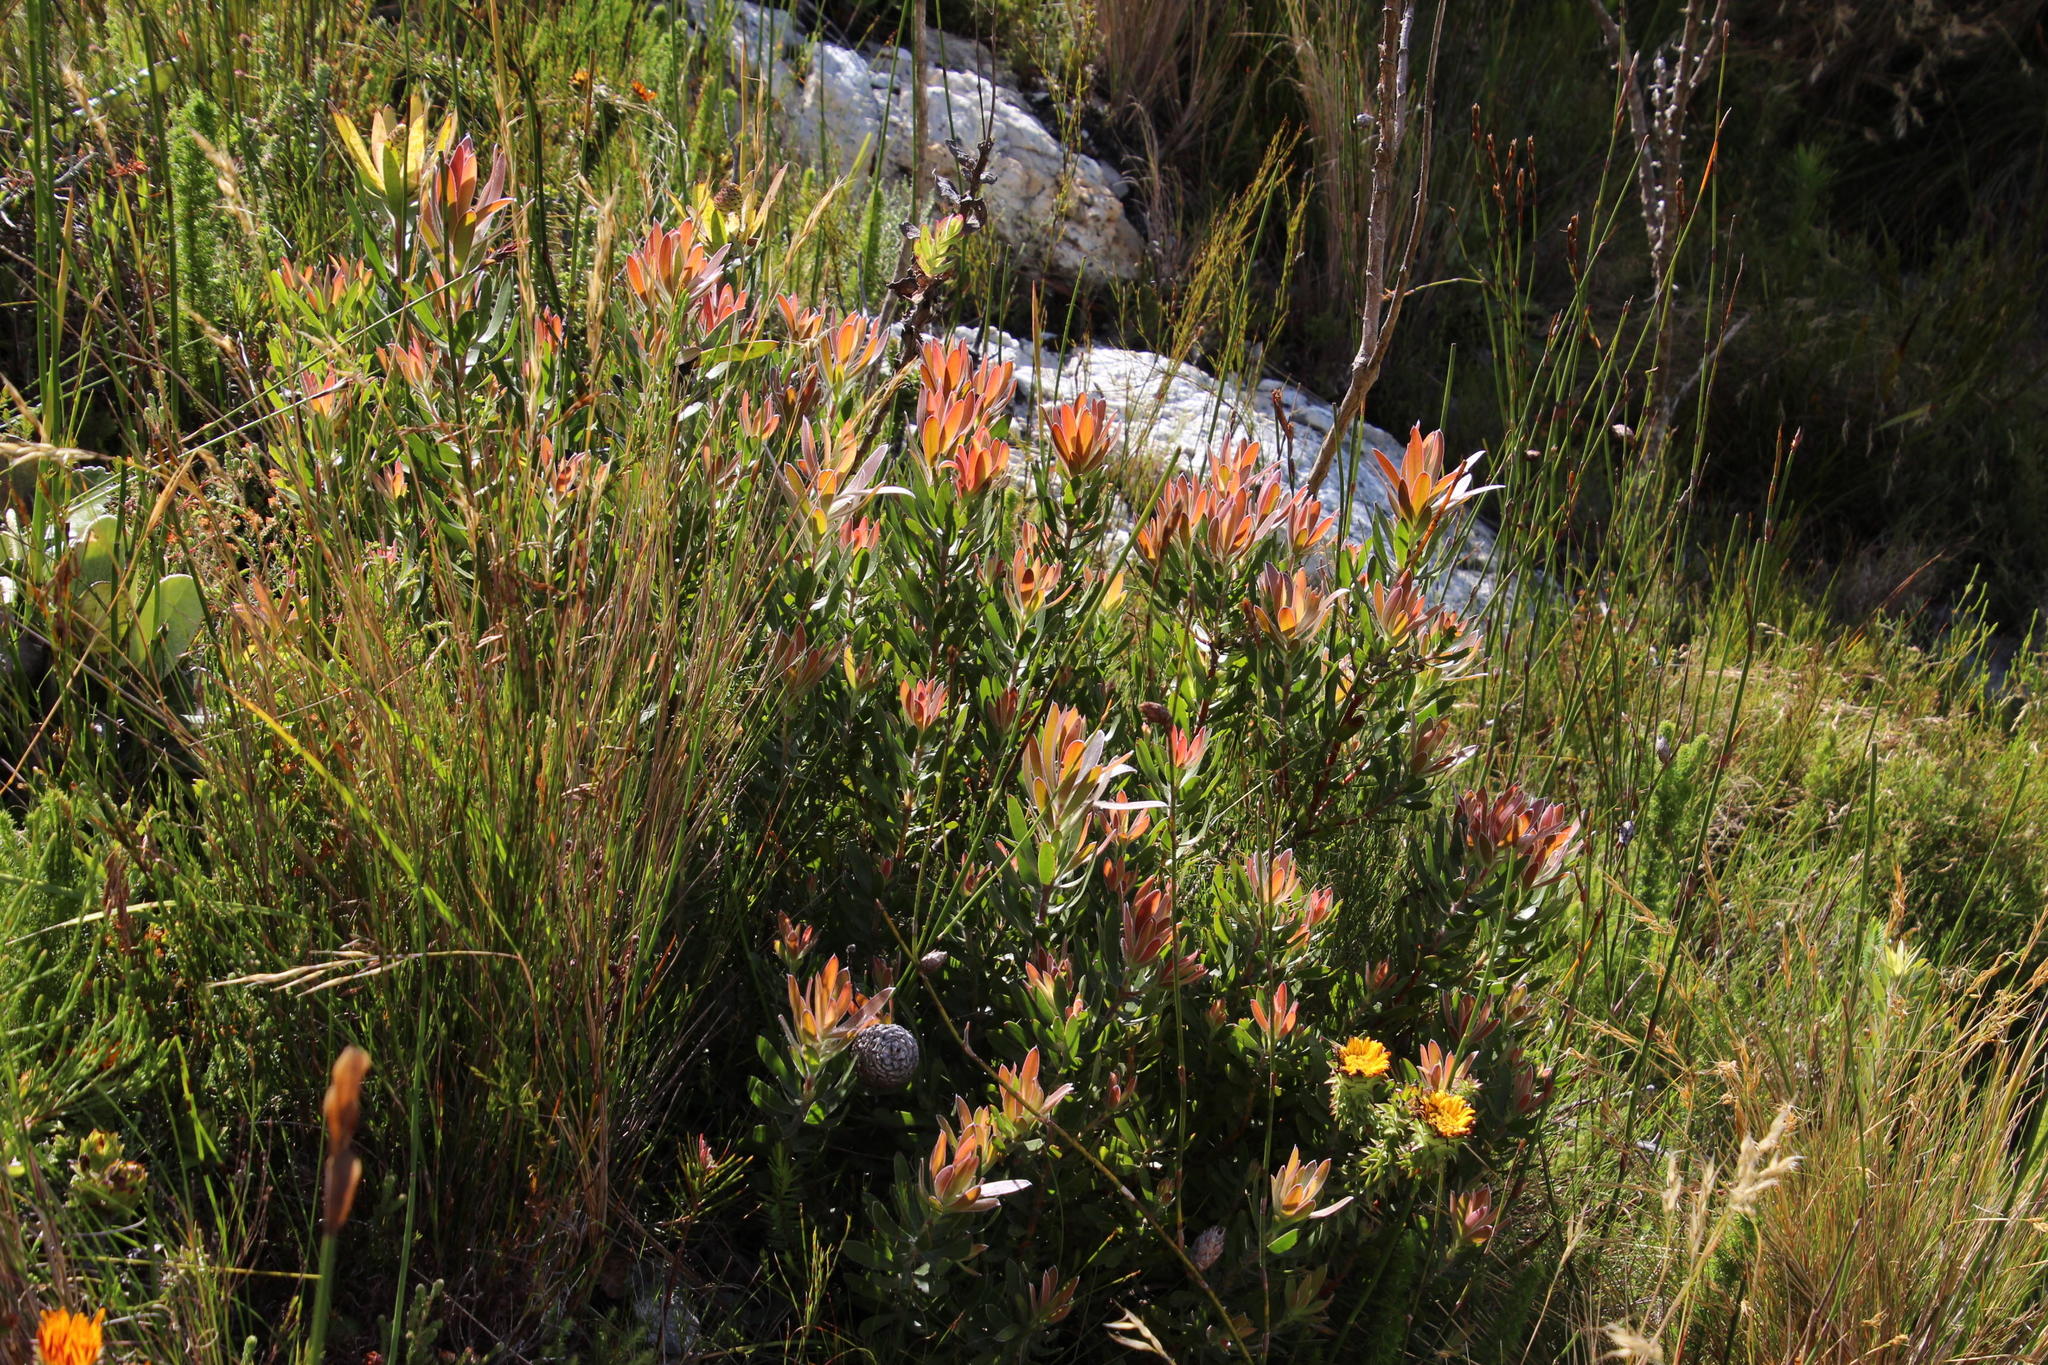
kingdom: Plantae
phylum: Tracheophyta
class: Magnoliopsida
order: Proteales
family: Proteaceae
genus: Leucadendron
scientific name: Leucadendron spissifolium
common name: Spear-leaf conebush
